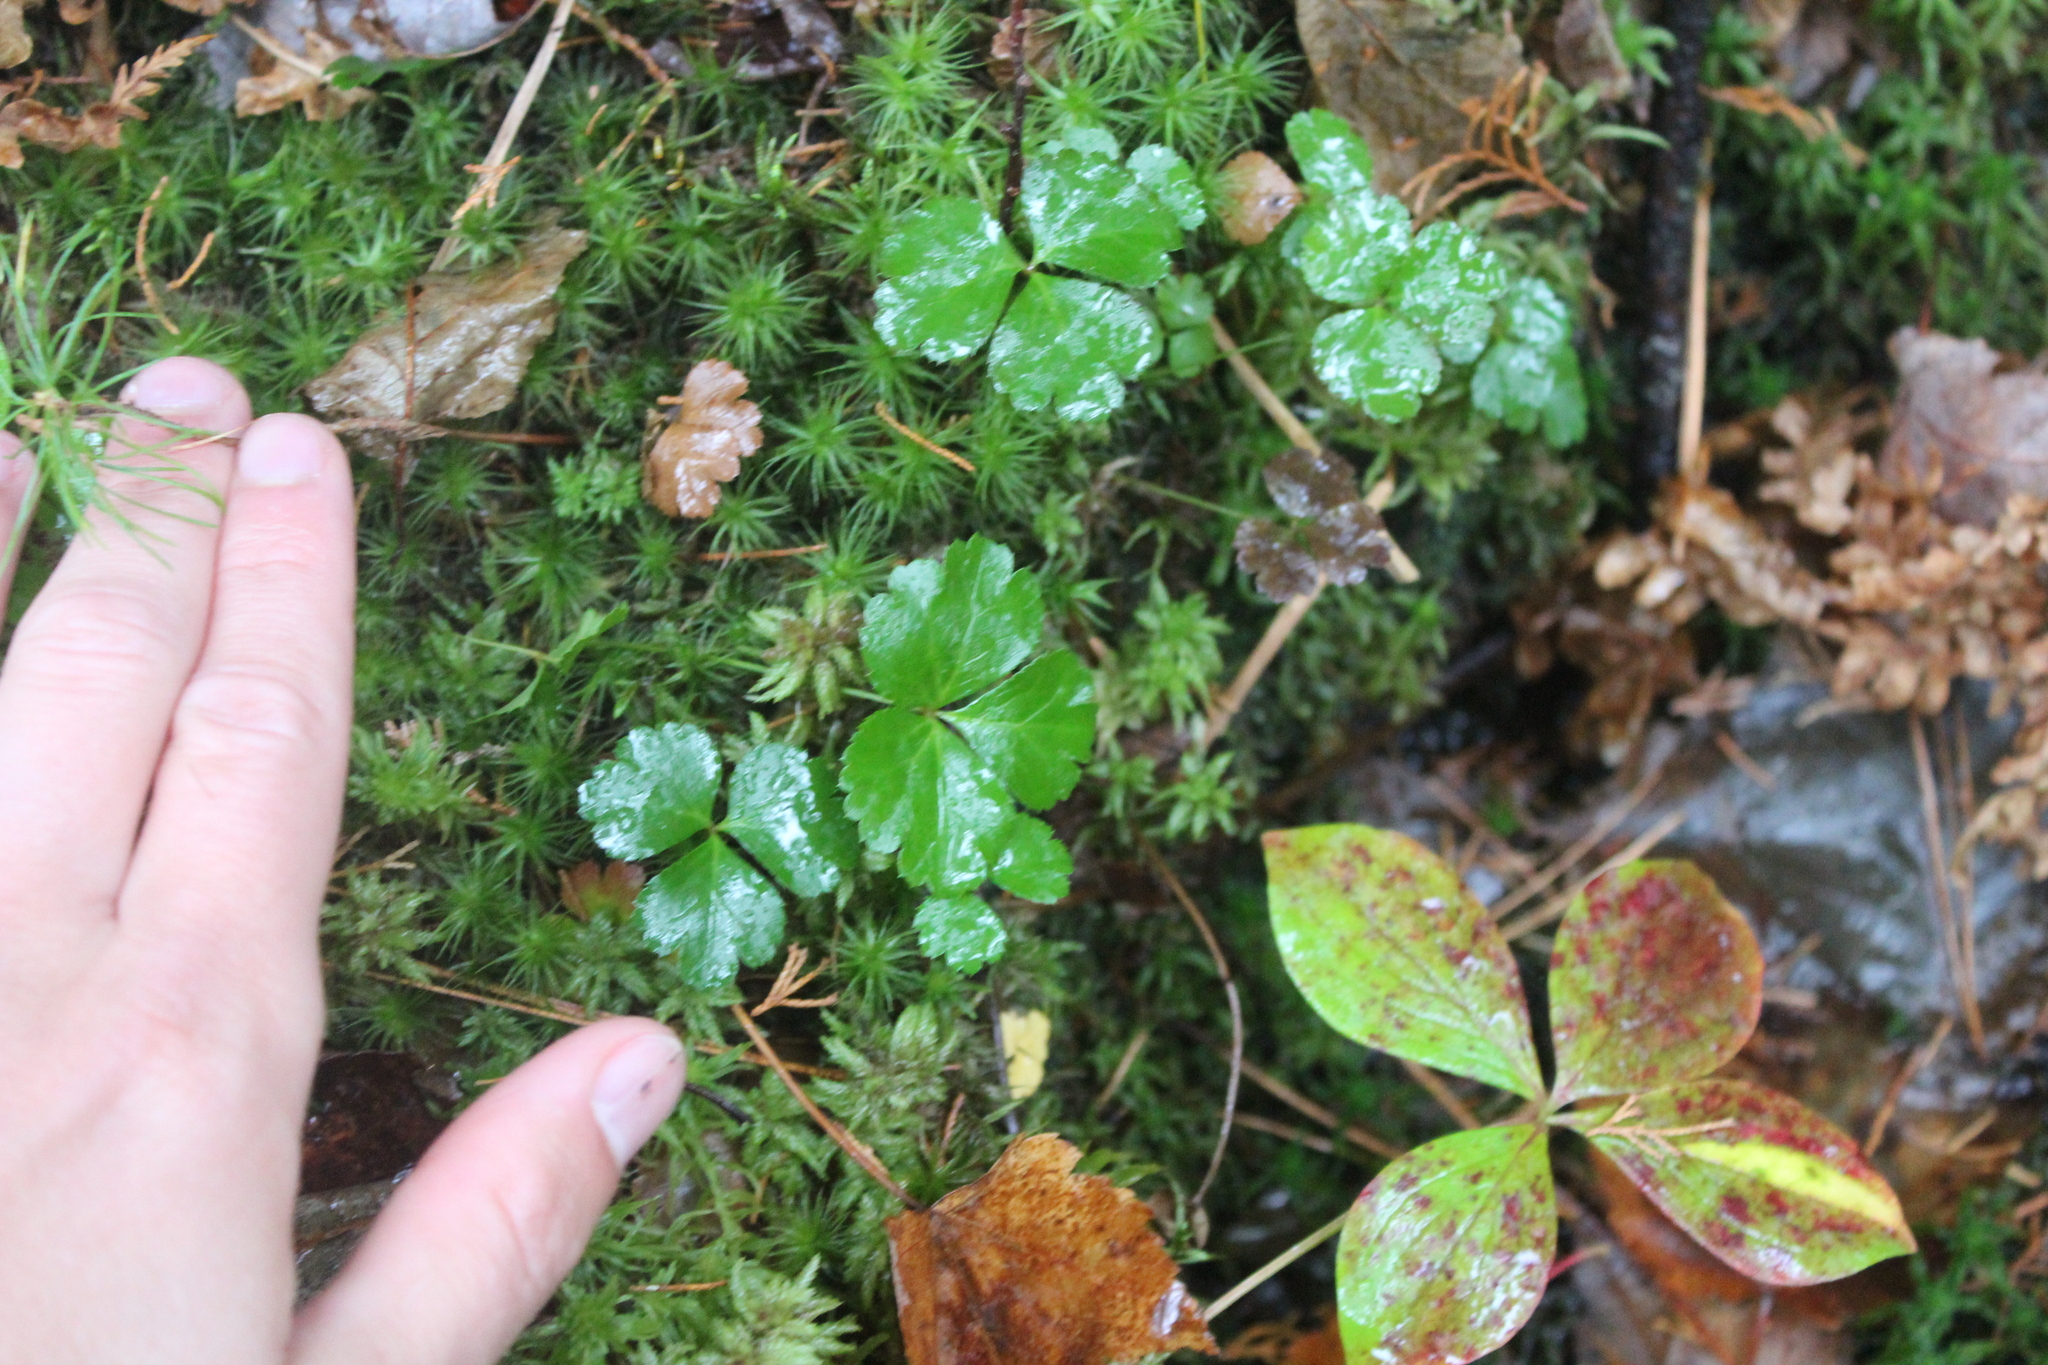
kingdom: Plantae
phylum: Tracheophyta
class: Magnoliopsida
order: Ranunculales
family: Ranunculaceae
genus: Coptis
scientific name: Coptis trifolia
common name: Canker-root
